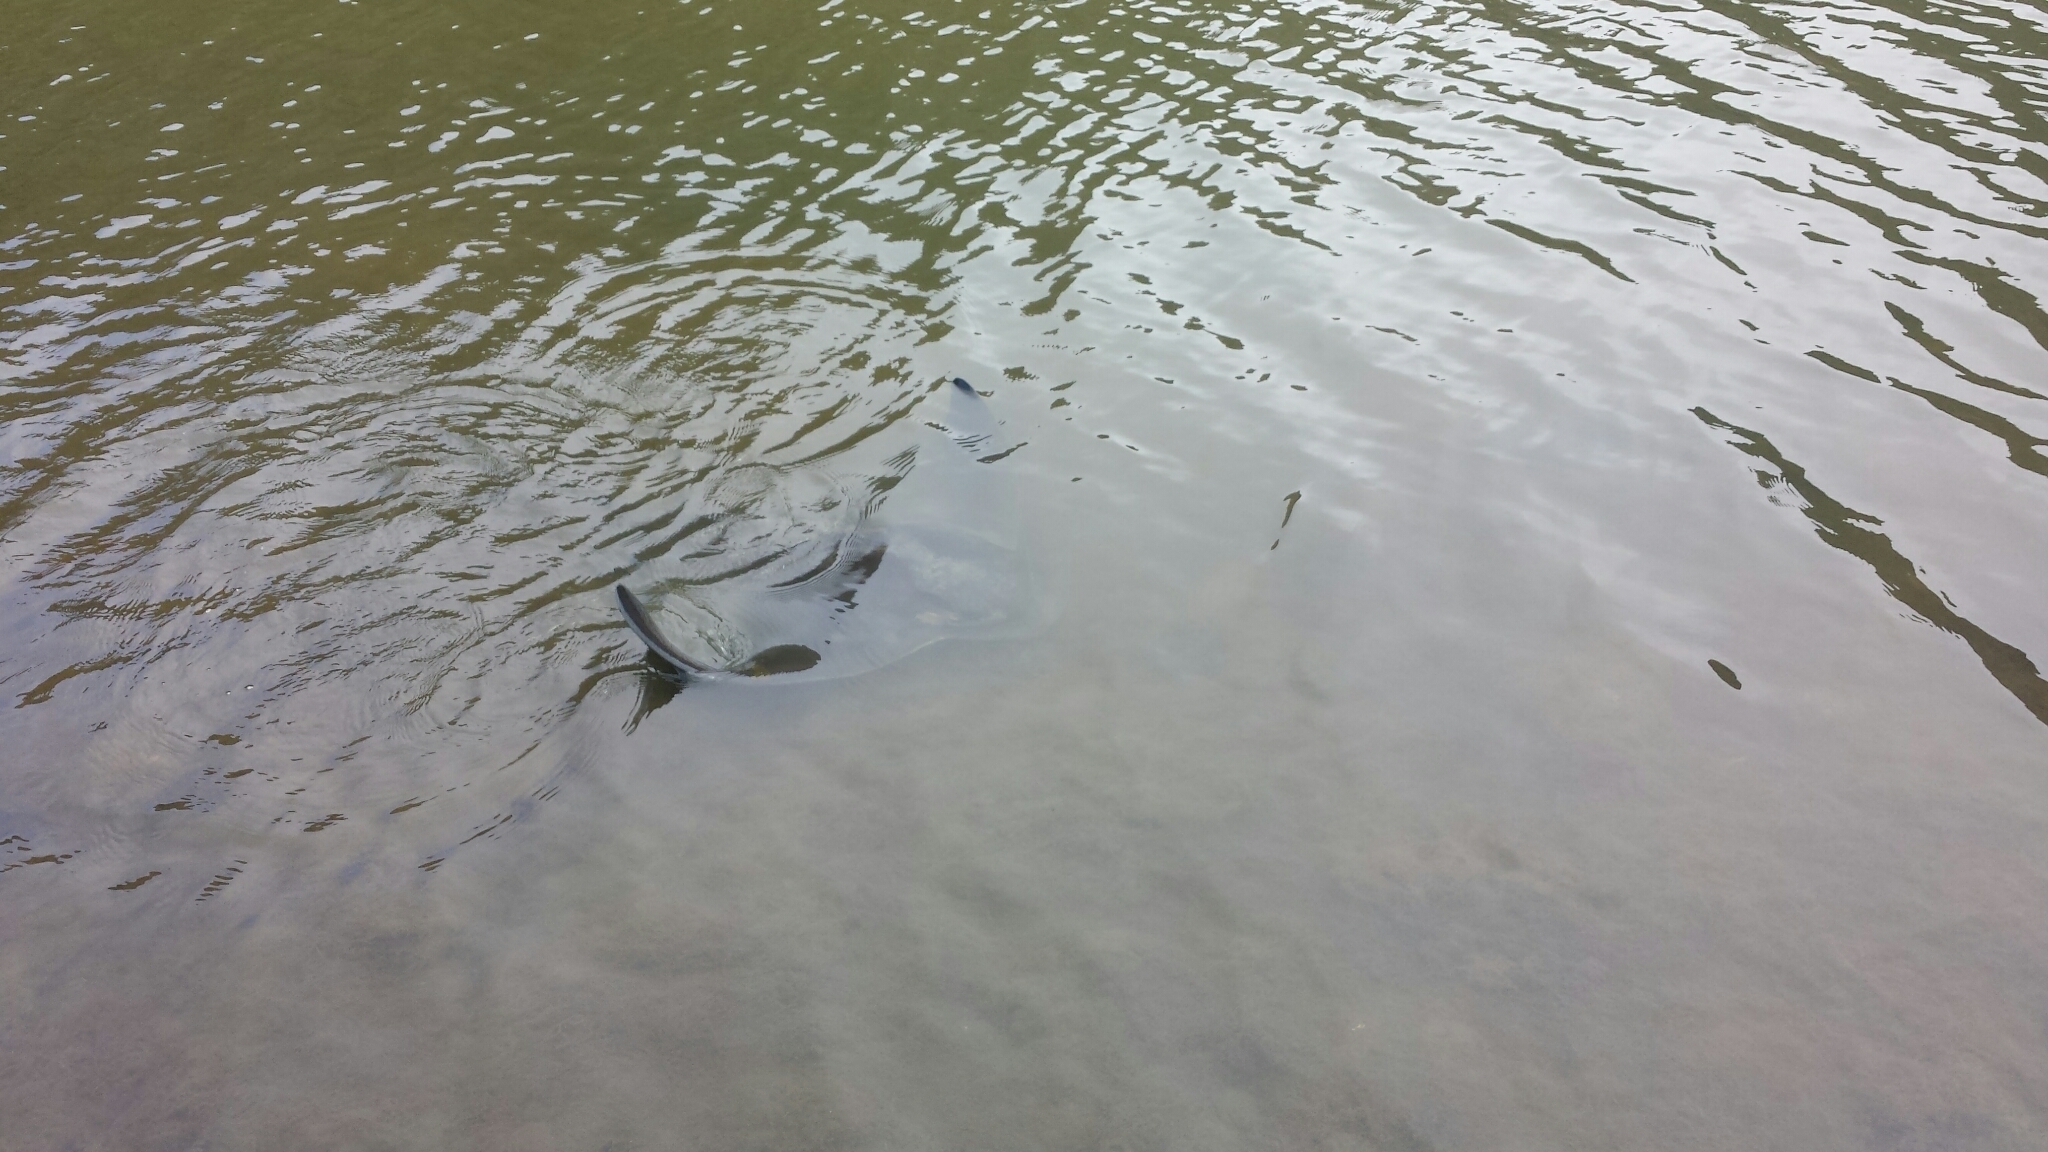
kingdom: Animalia
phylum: Chordata
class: Elasmobranchii
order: Myliobatiformes
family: Myliobatidae
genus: Myliobatis
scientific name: Myliobatis californica
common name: Bat ray
